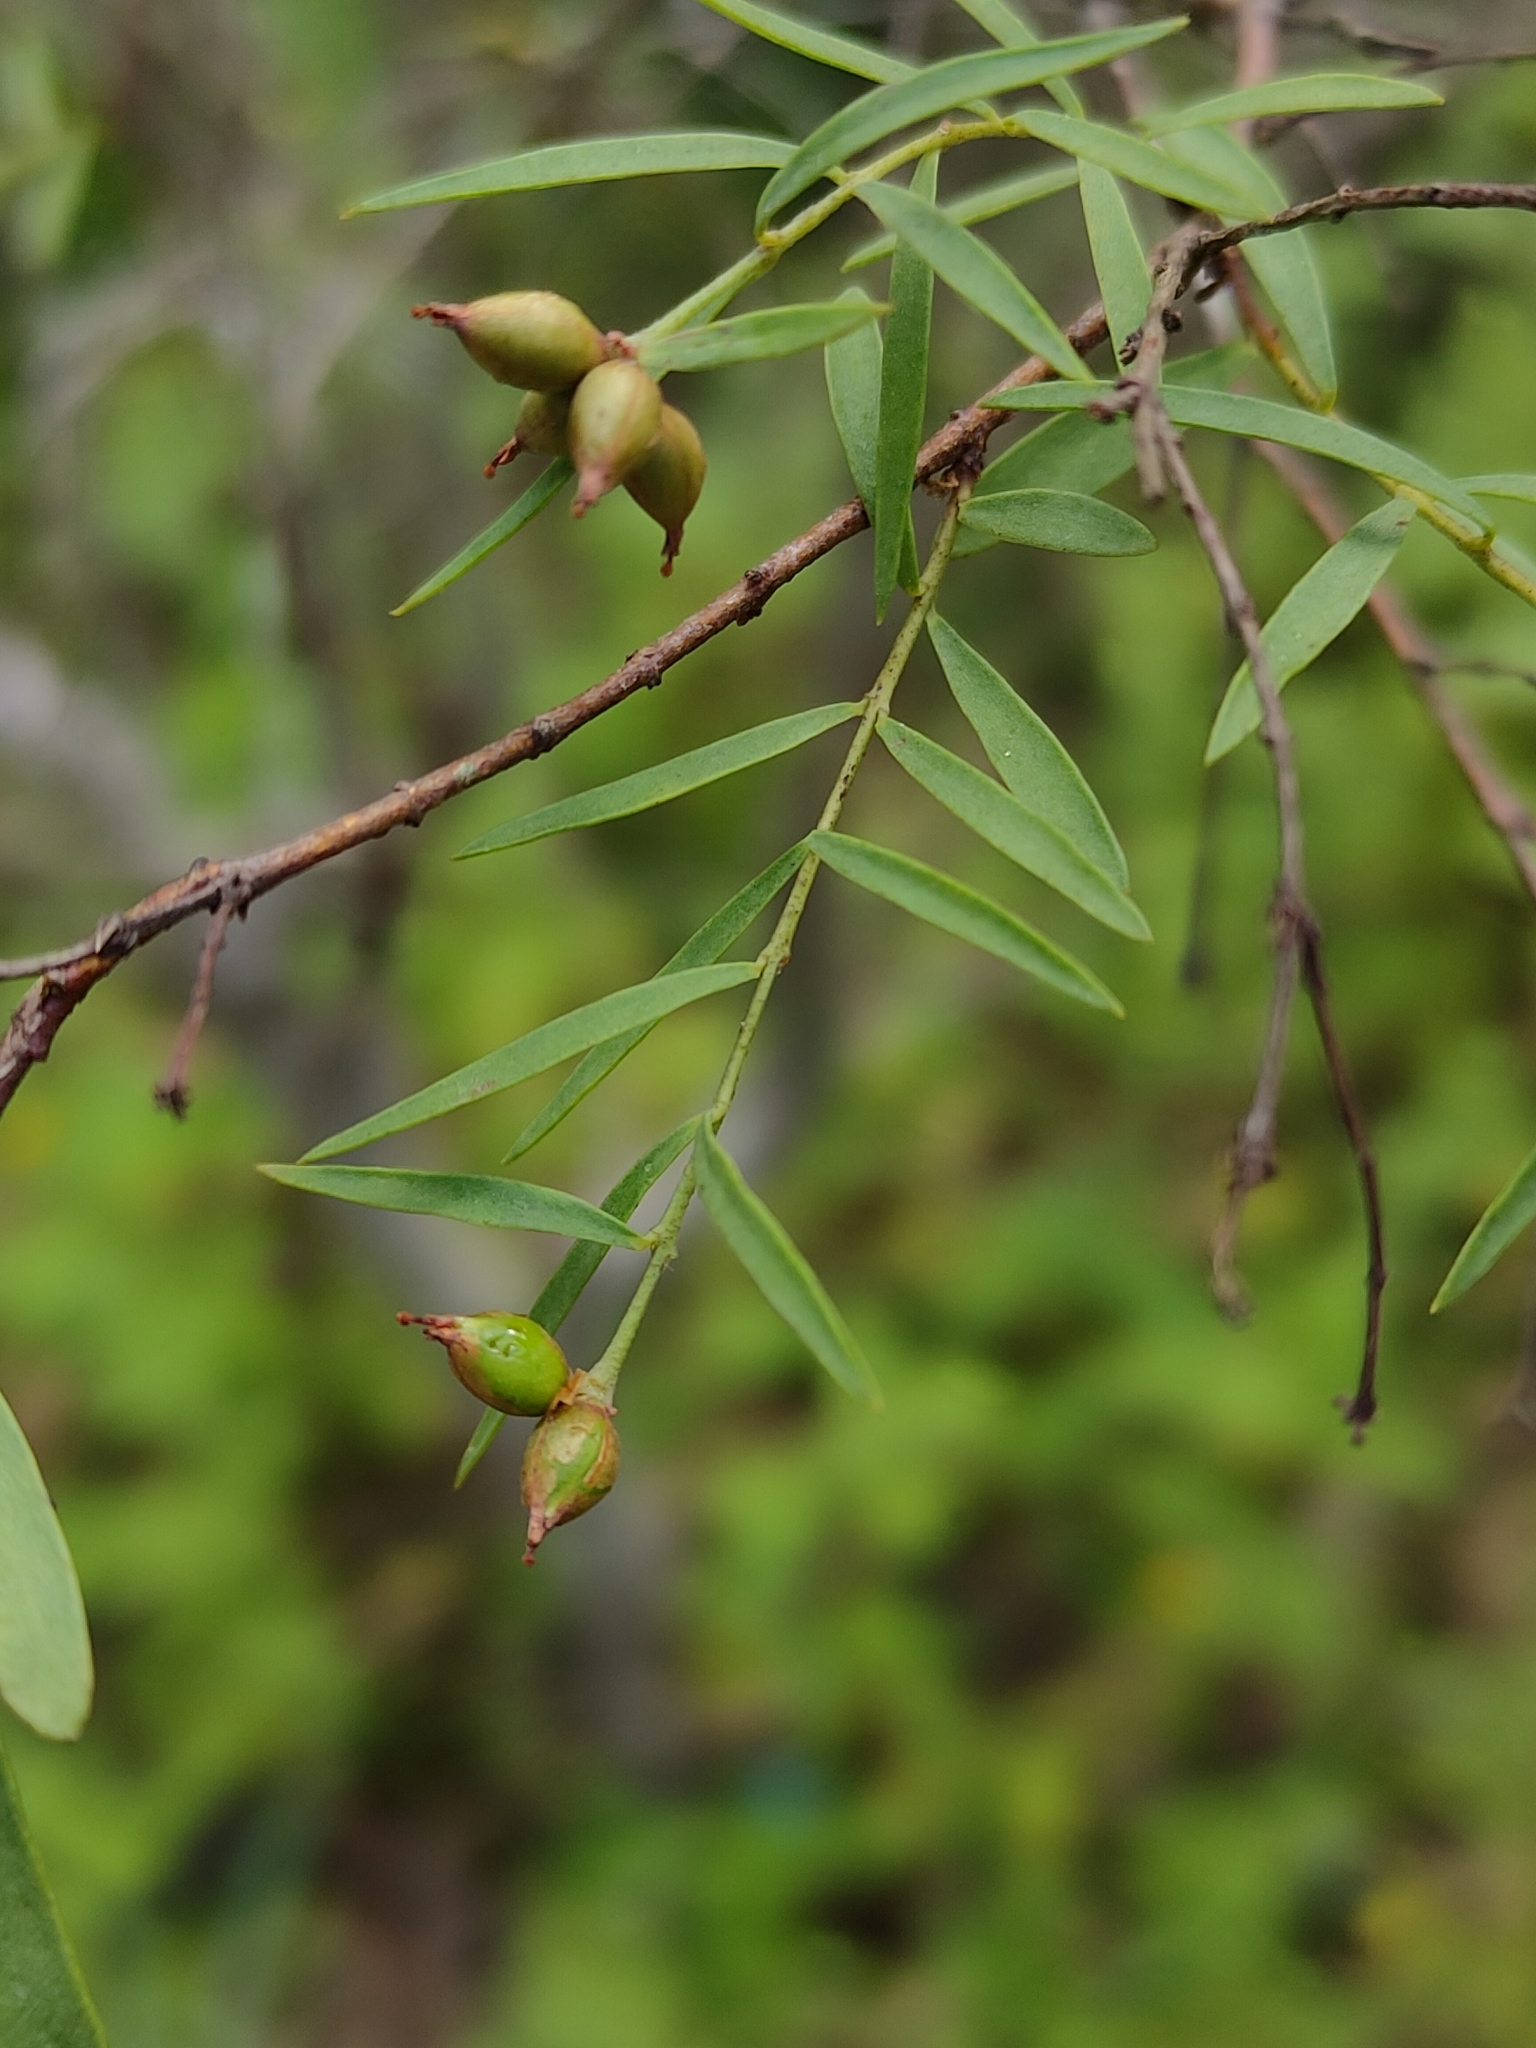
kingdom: Plantae
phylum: Tracheophyta
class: Magnoliopsida
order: Malvales
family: Thymelaeaceae
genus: Pimelea
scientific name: Pimelea neoanglica
